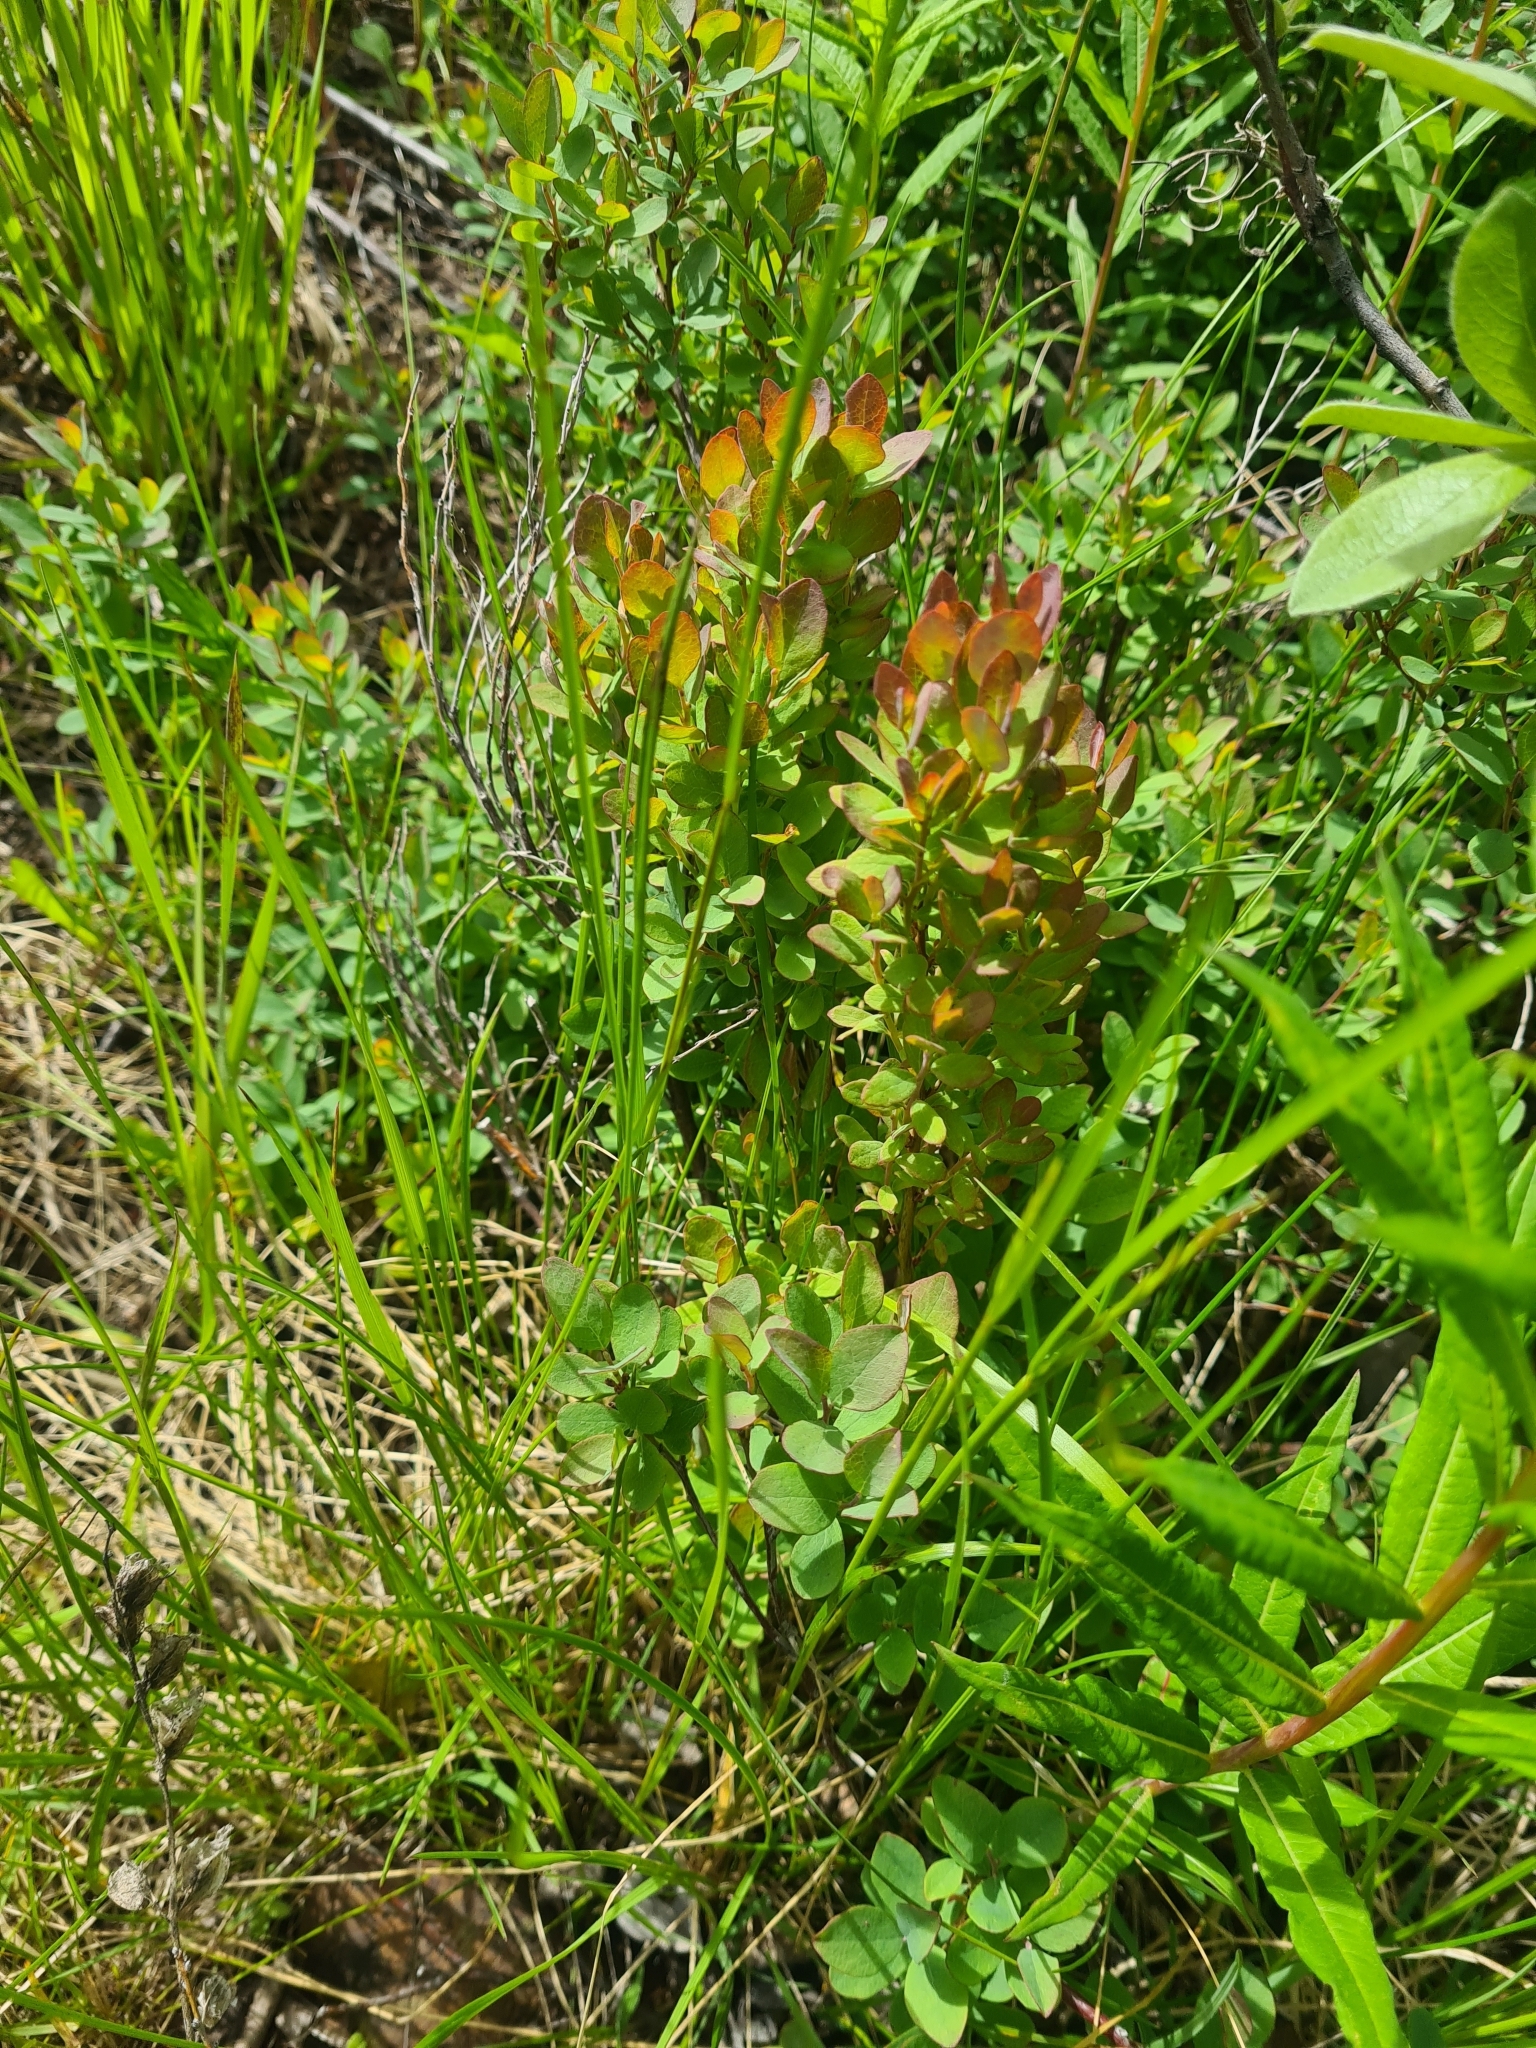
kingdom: Plantae
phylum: Tracheophyta
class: Magnoliopsida
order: Ericales
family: Ericaceae
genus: Vaccinium
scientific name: Vaccinium uliginosum
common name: Bog bilberry
